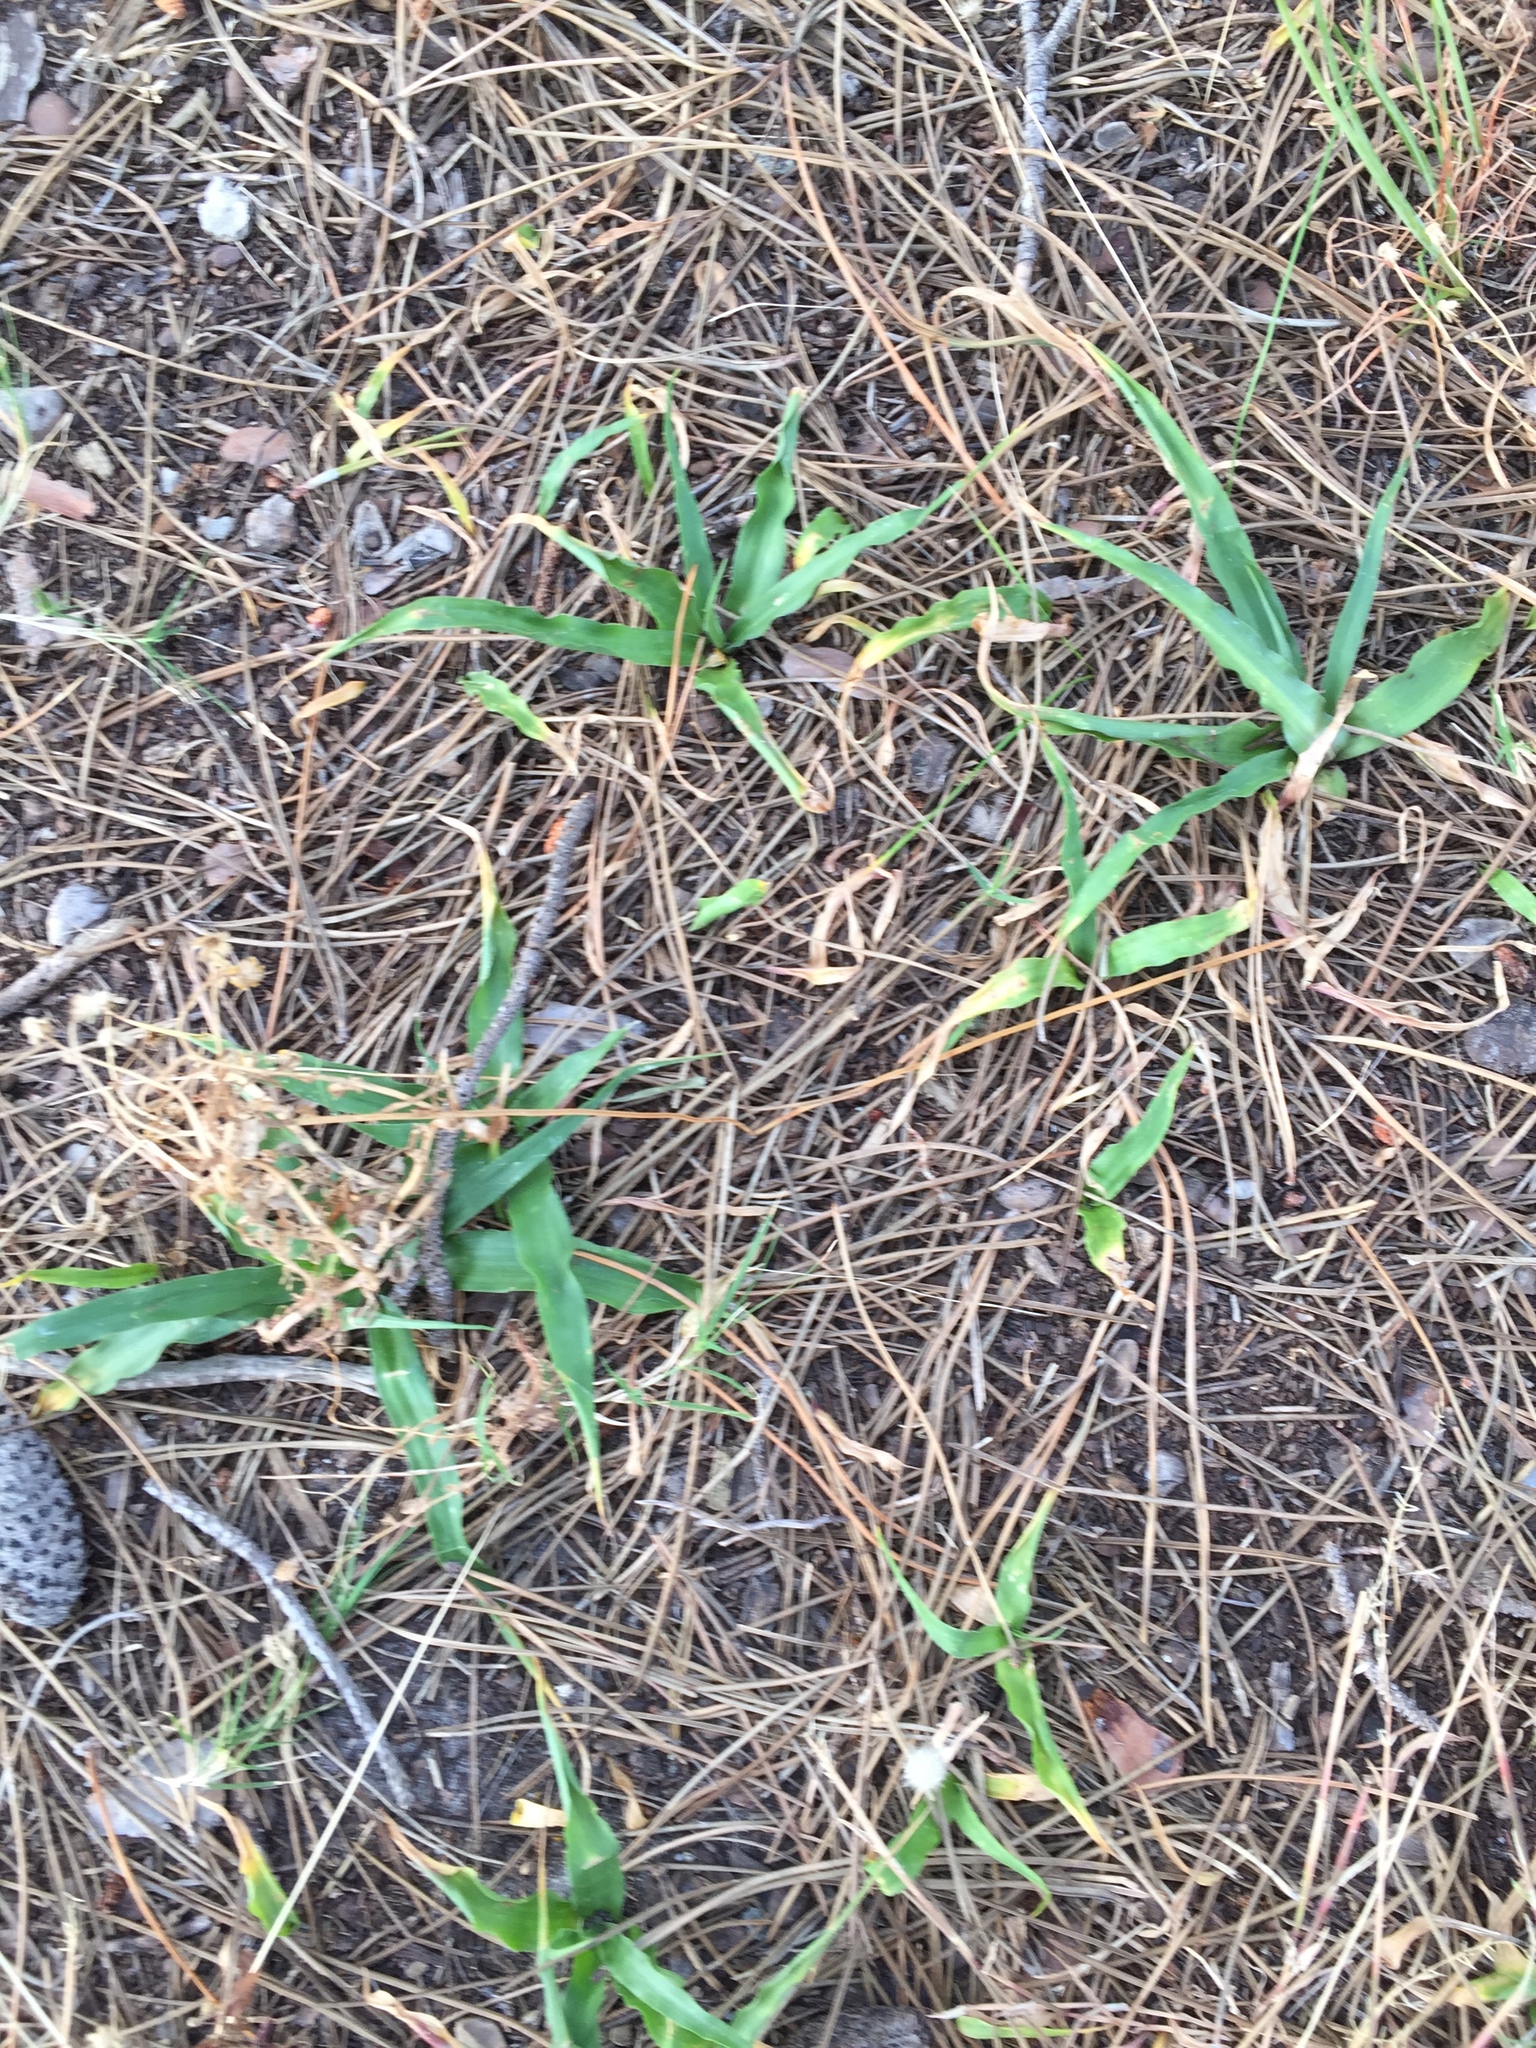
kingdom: Plantae
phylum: Tracheophyta
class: Liliopsida
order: Asparagales
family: Tecophilaeaceae
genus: Cyanella
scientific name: Cyanella hyacinthoides
